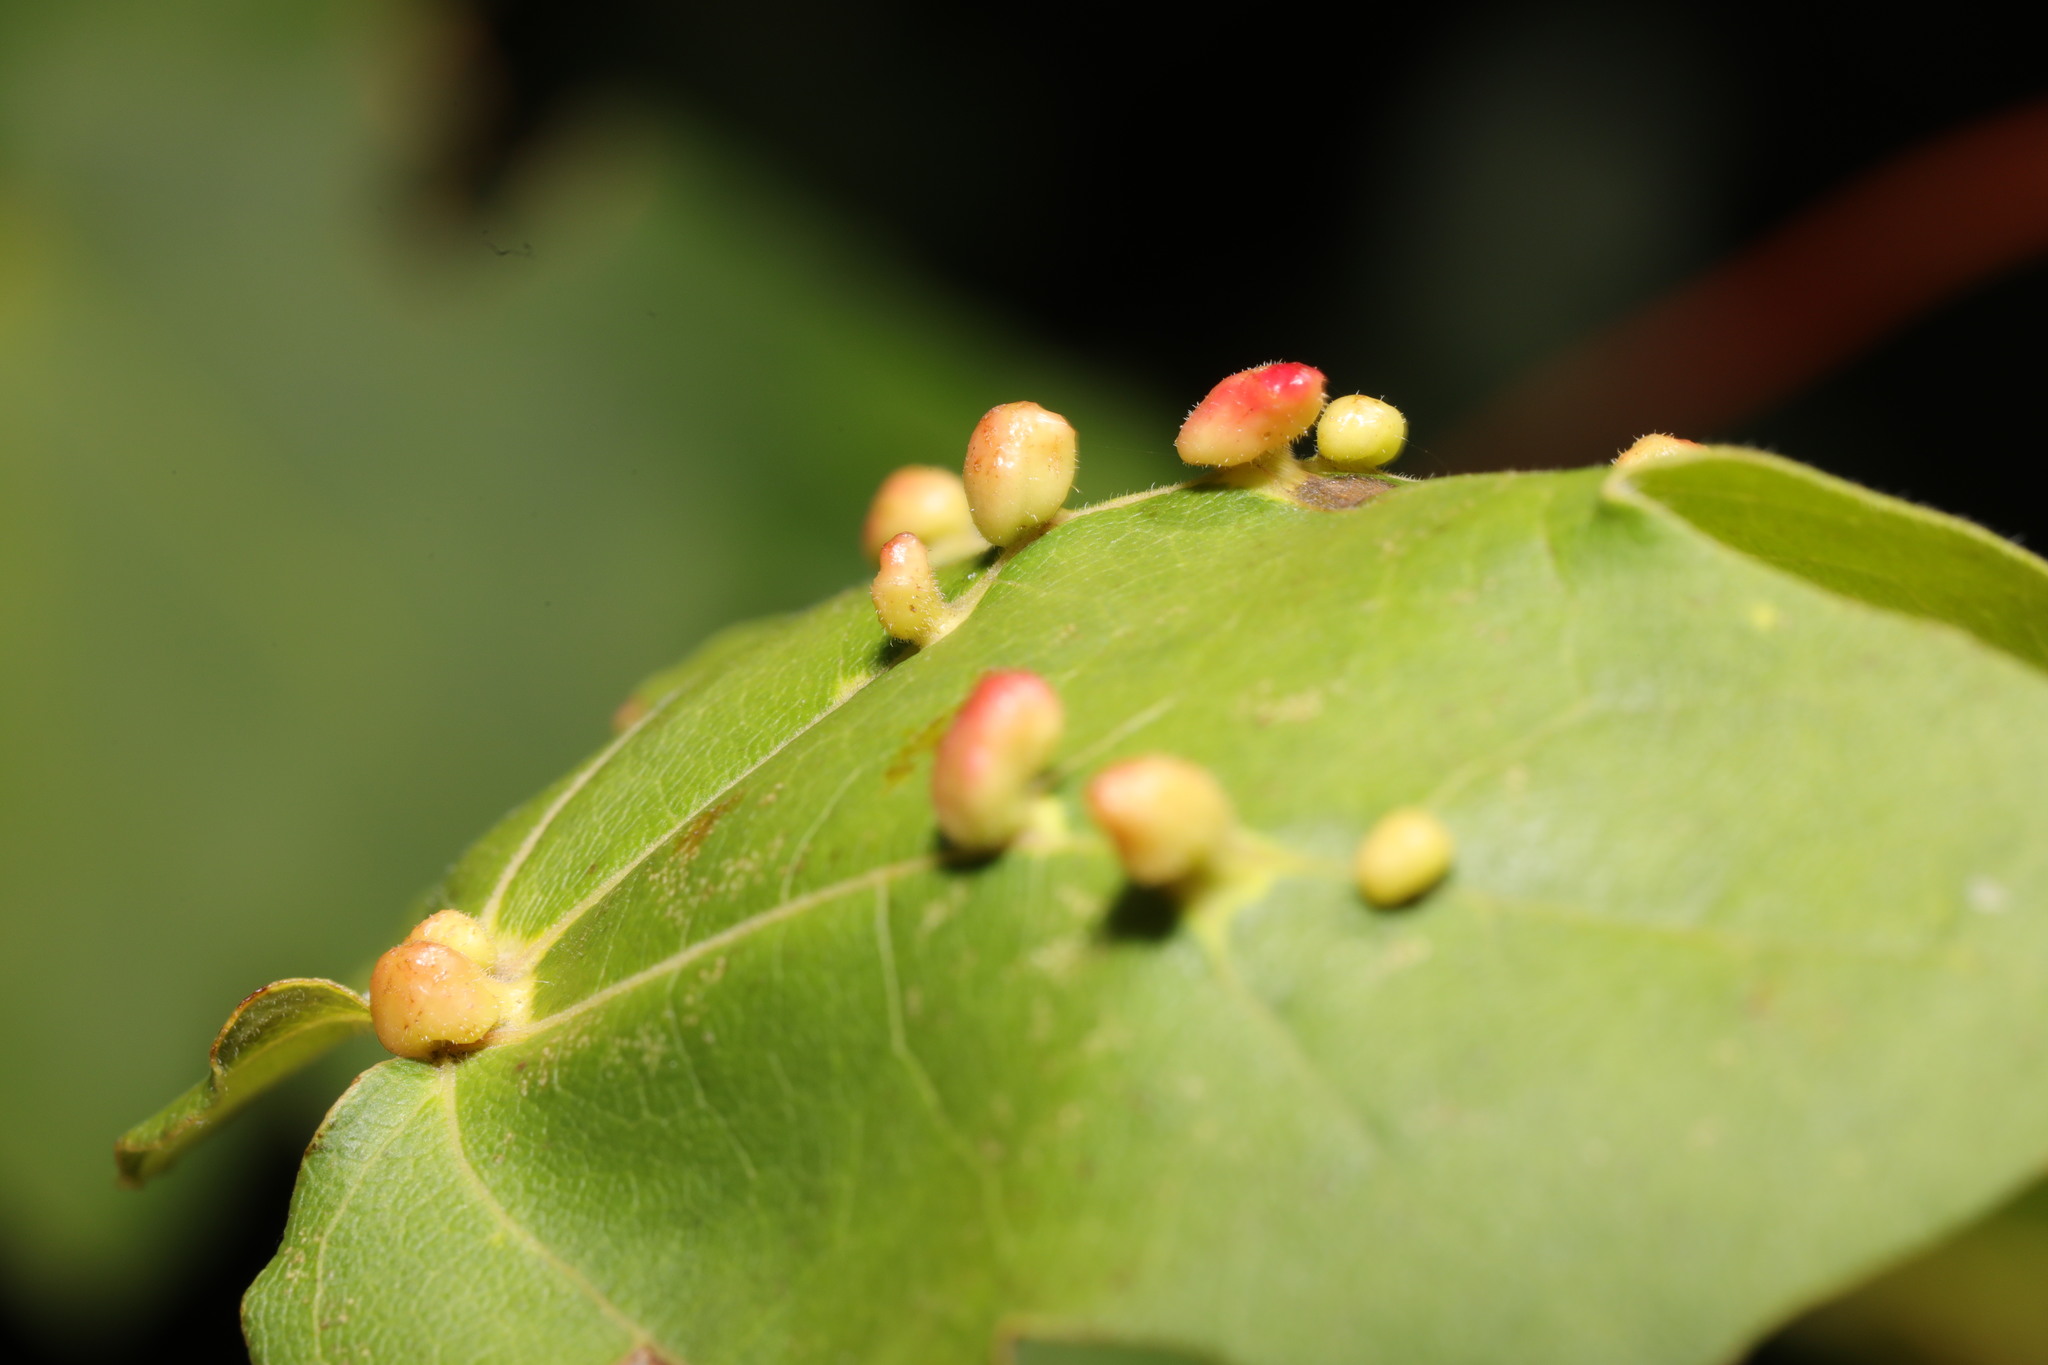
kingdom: Animalia
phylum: Arthropoda
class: Arachnida
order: Trombidiformes
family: Eriophyidae
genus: Aceria
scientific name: Aceria macrochelus
